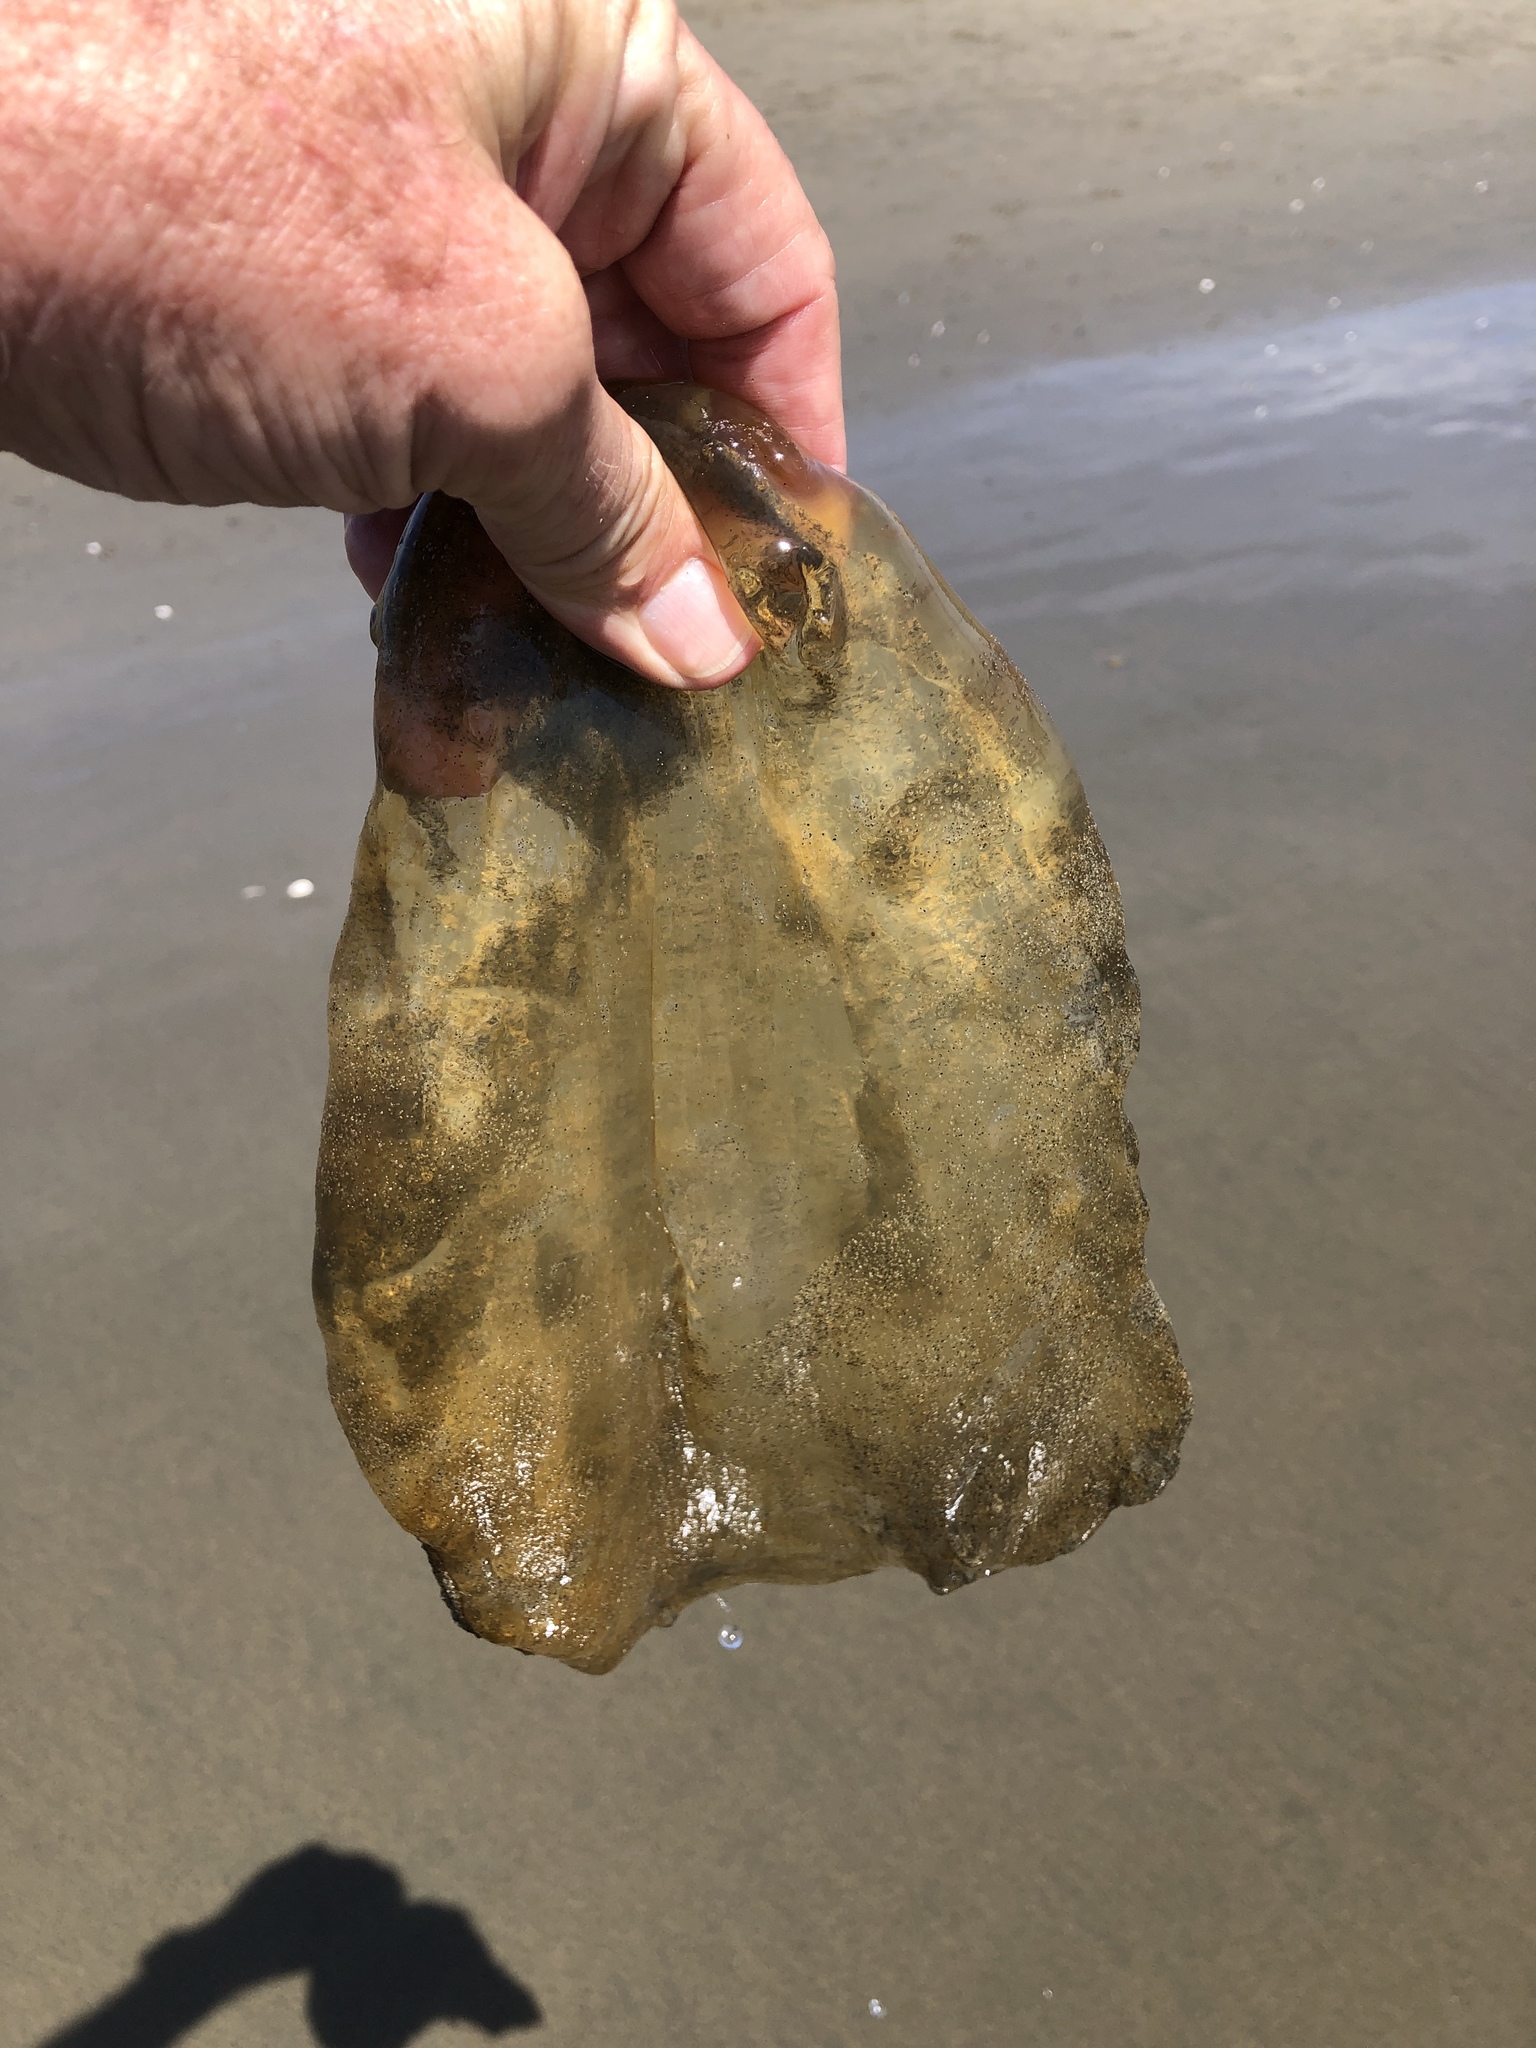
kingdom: Animalia
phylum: Cnidaria
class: Scyphozoa
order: Semaeostomeae
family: Pelagiidae
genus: Chrysaora
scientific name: Chrysaora fuscescens
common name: Sea nettle
